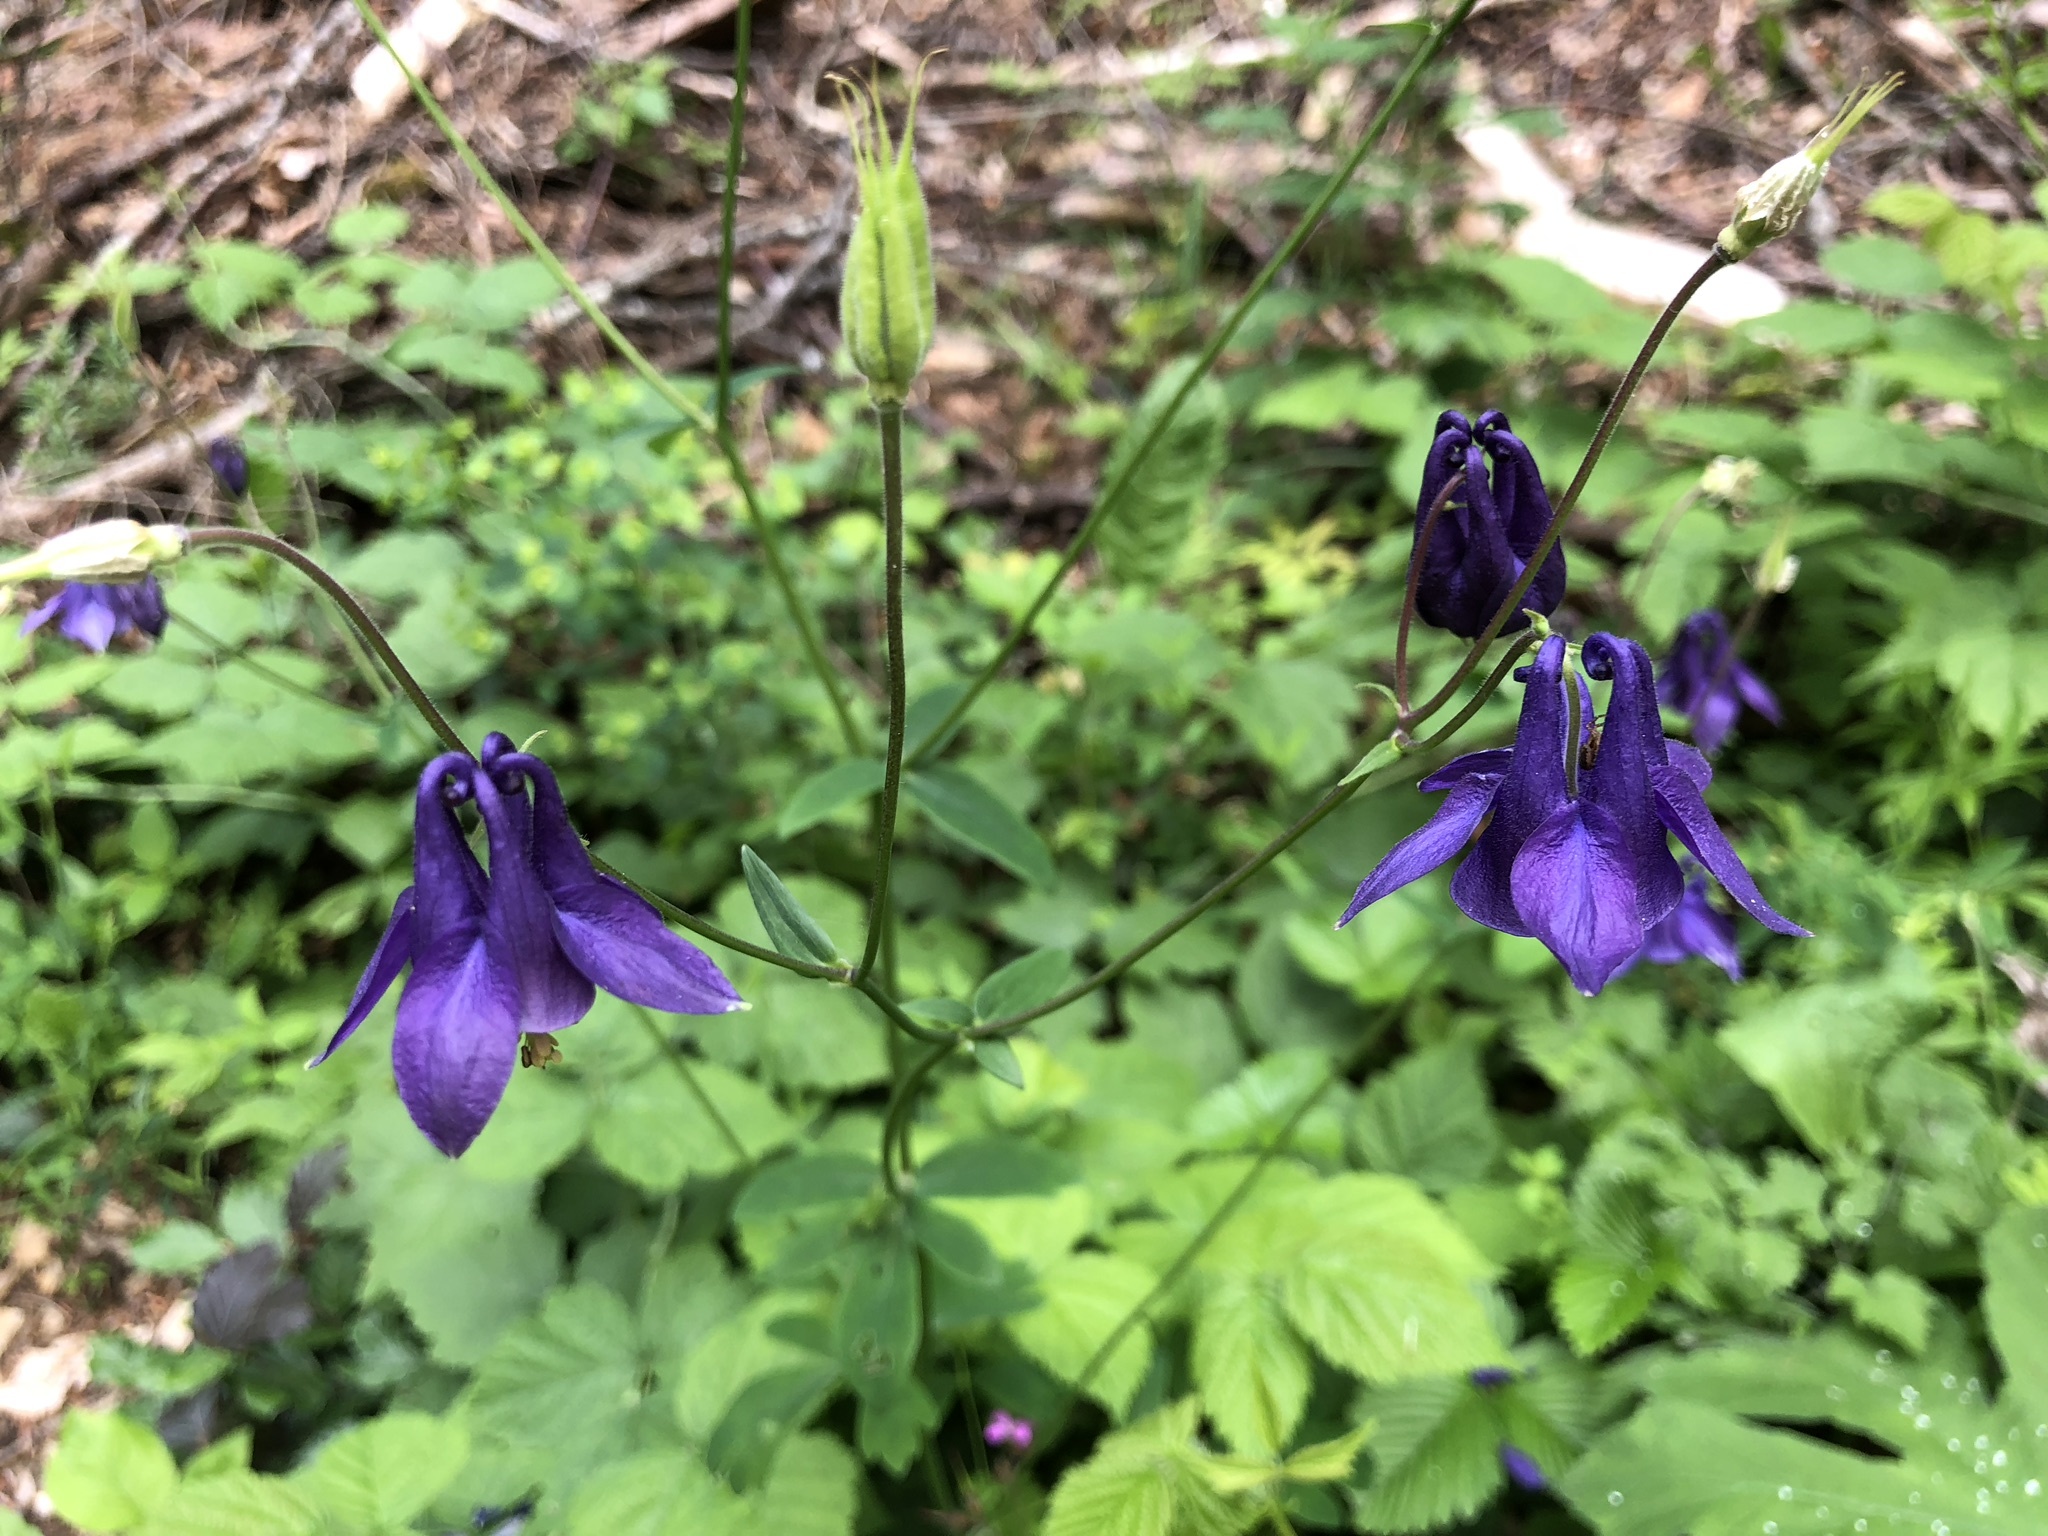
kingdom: Plantae
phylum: Tracheophyta
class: Magnoliopsida
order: Ranunculales
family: Ranunculaceae
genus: Aquilegia
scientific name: Aquilegia vulgaris
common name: Columbine
